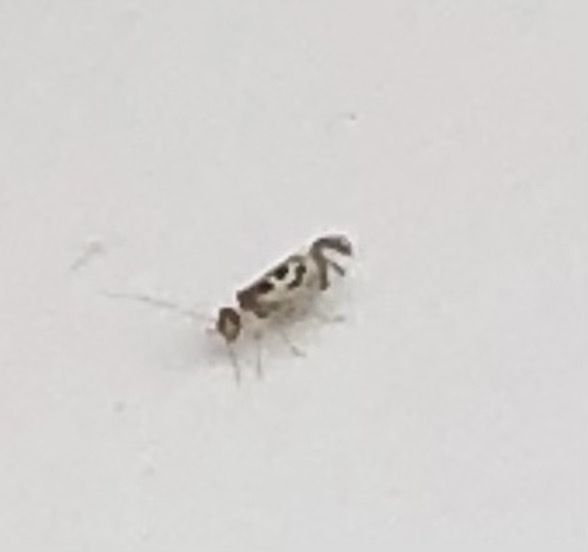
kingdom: Animalia
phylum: Arthropoda
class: Insecta
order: Psocodea
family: Stenopsocidae
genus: Graphopsocus
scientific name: Graphopsocus cruciatus
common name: Lizard bark louse
